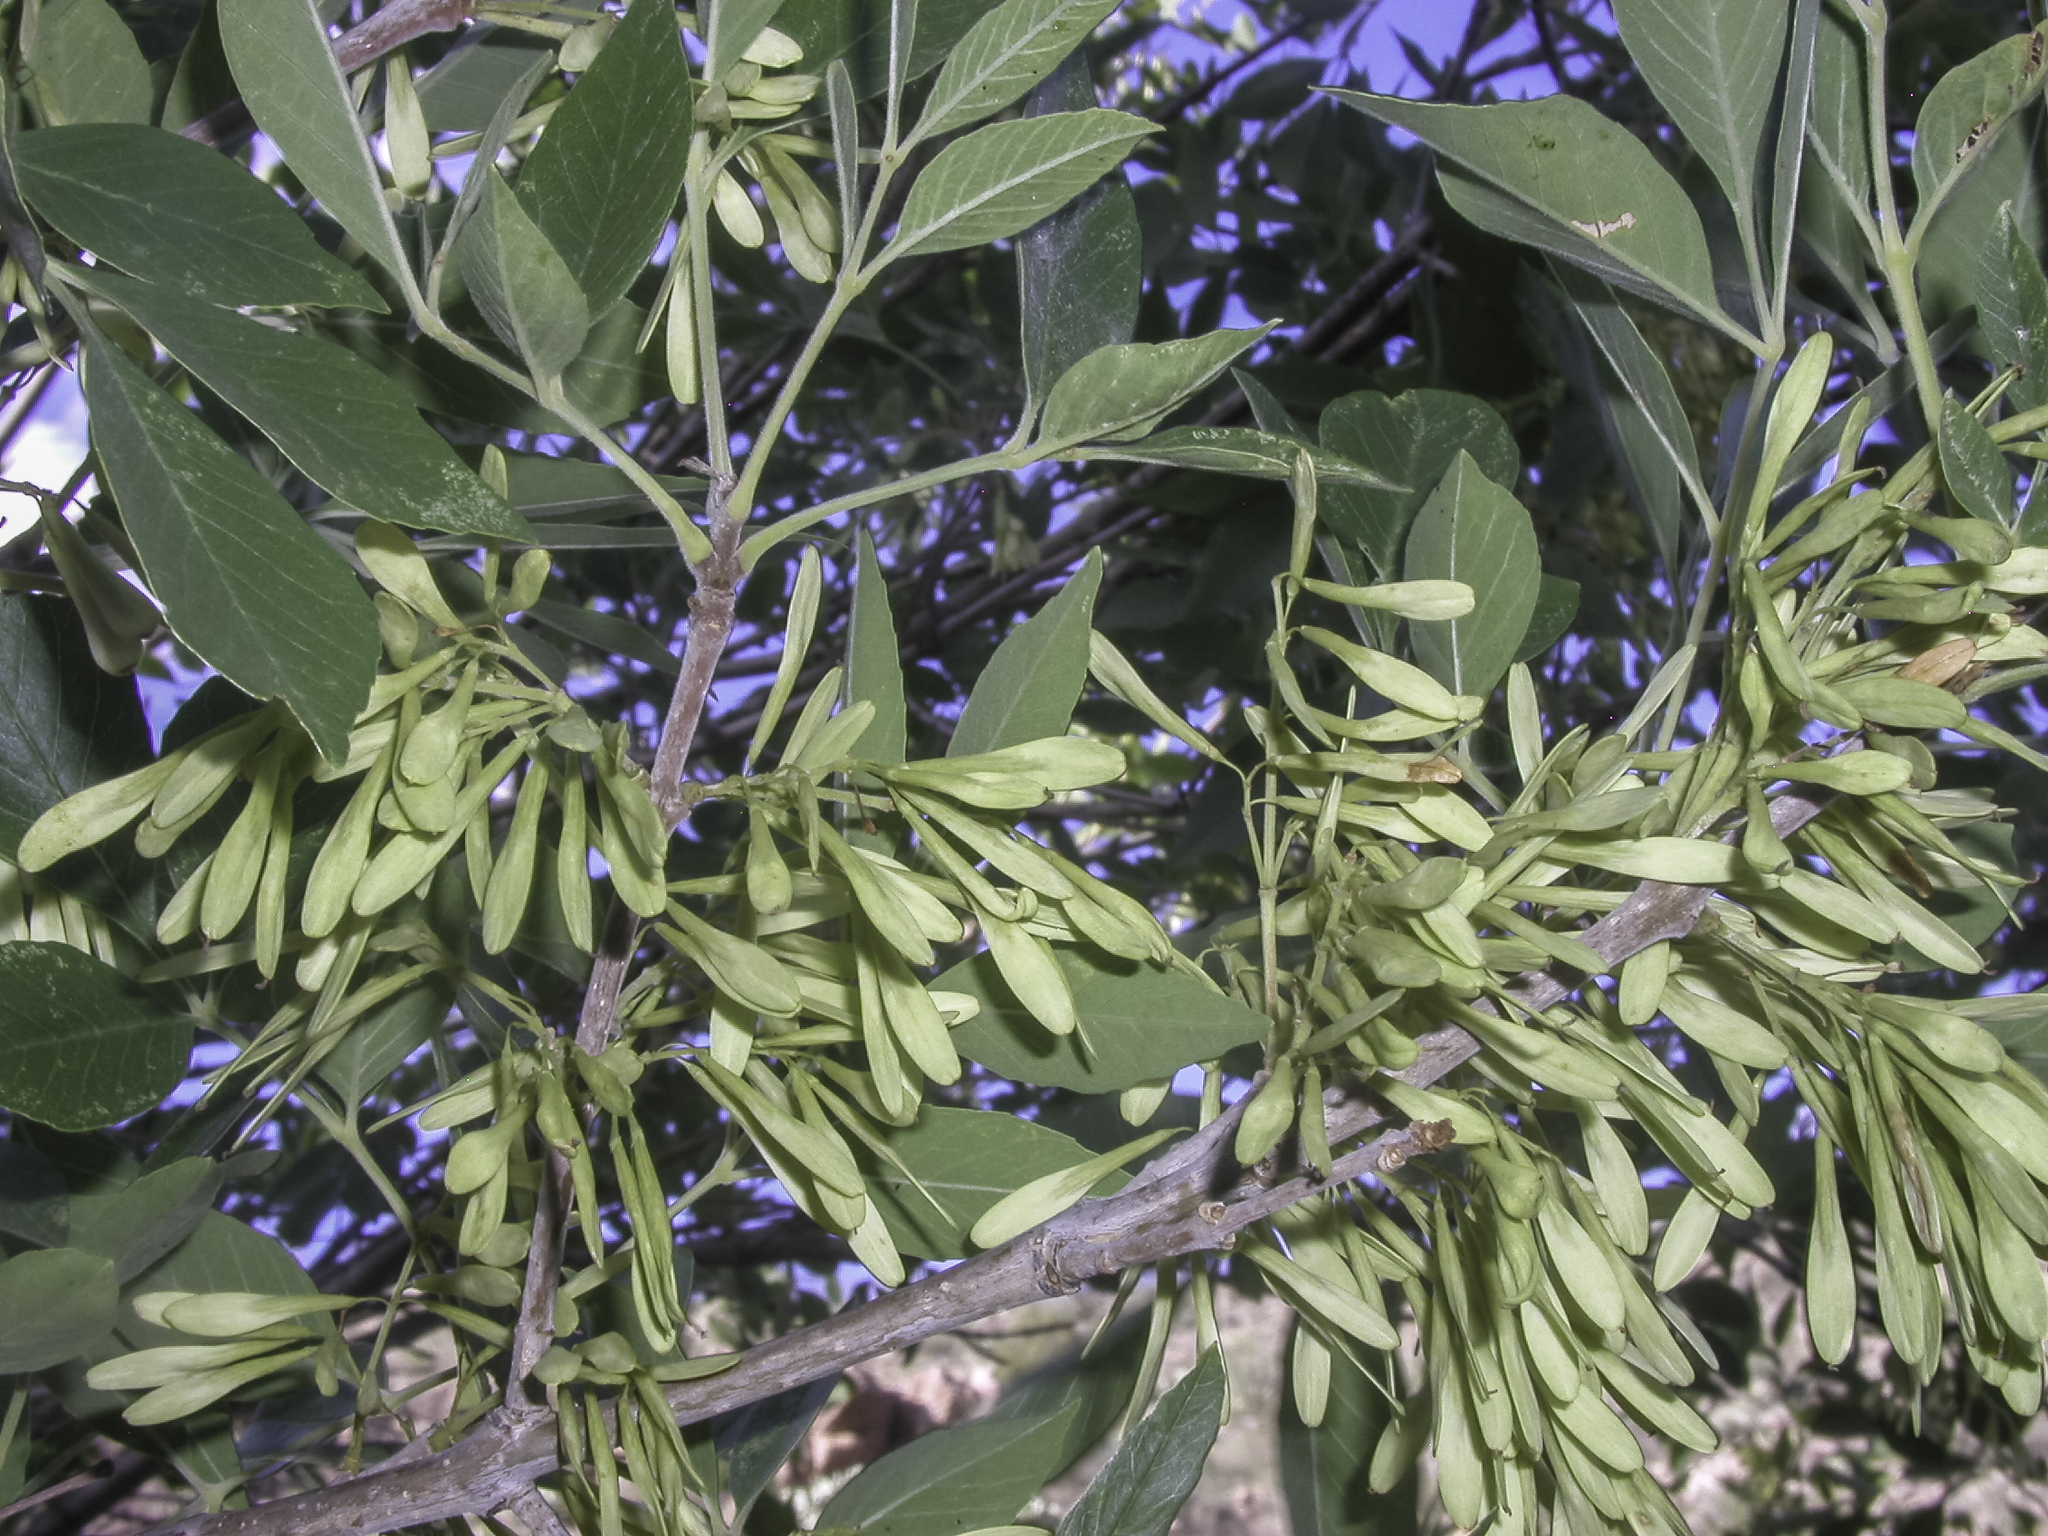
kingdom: Plantae
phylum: Tracheophyta
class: Magnoliopsida
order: Lamiales
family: Oleaceae
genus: Fraxinus
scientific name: Fraxinus velutina
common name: Arizon ash
